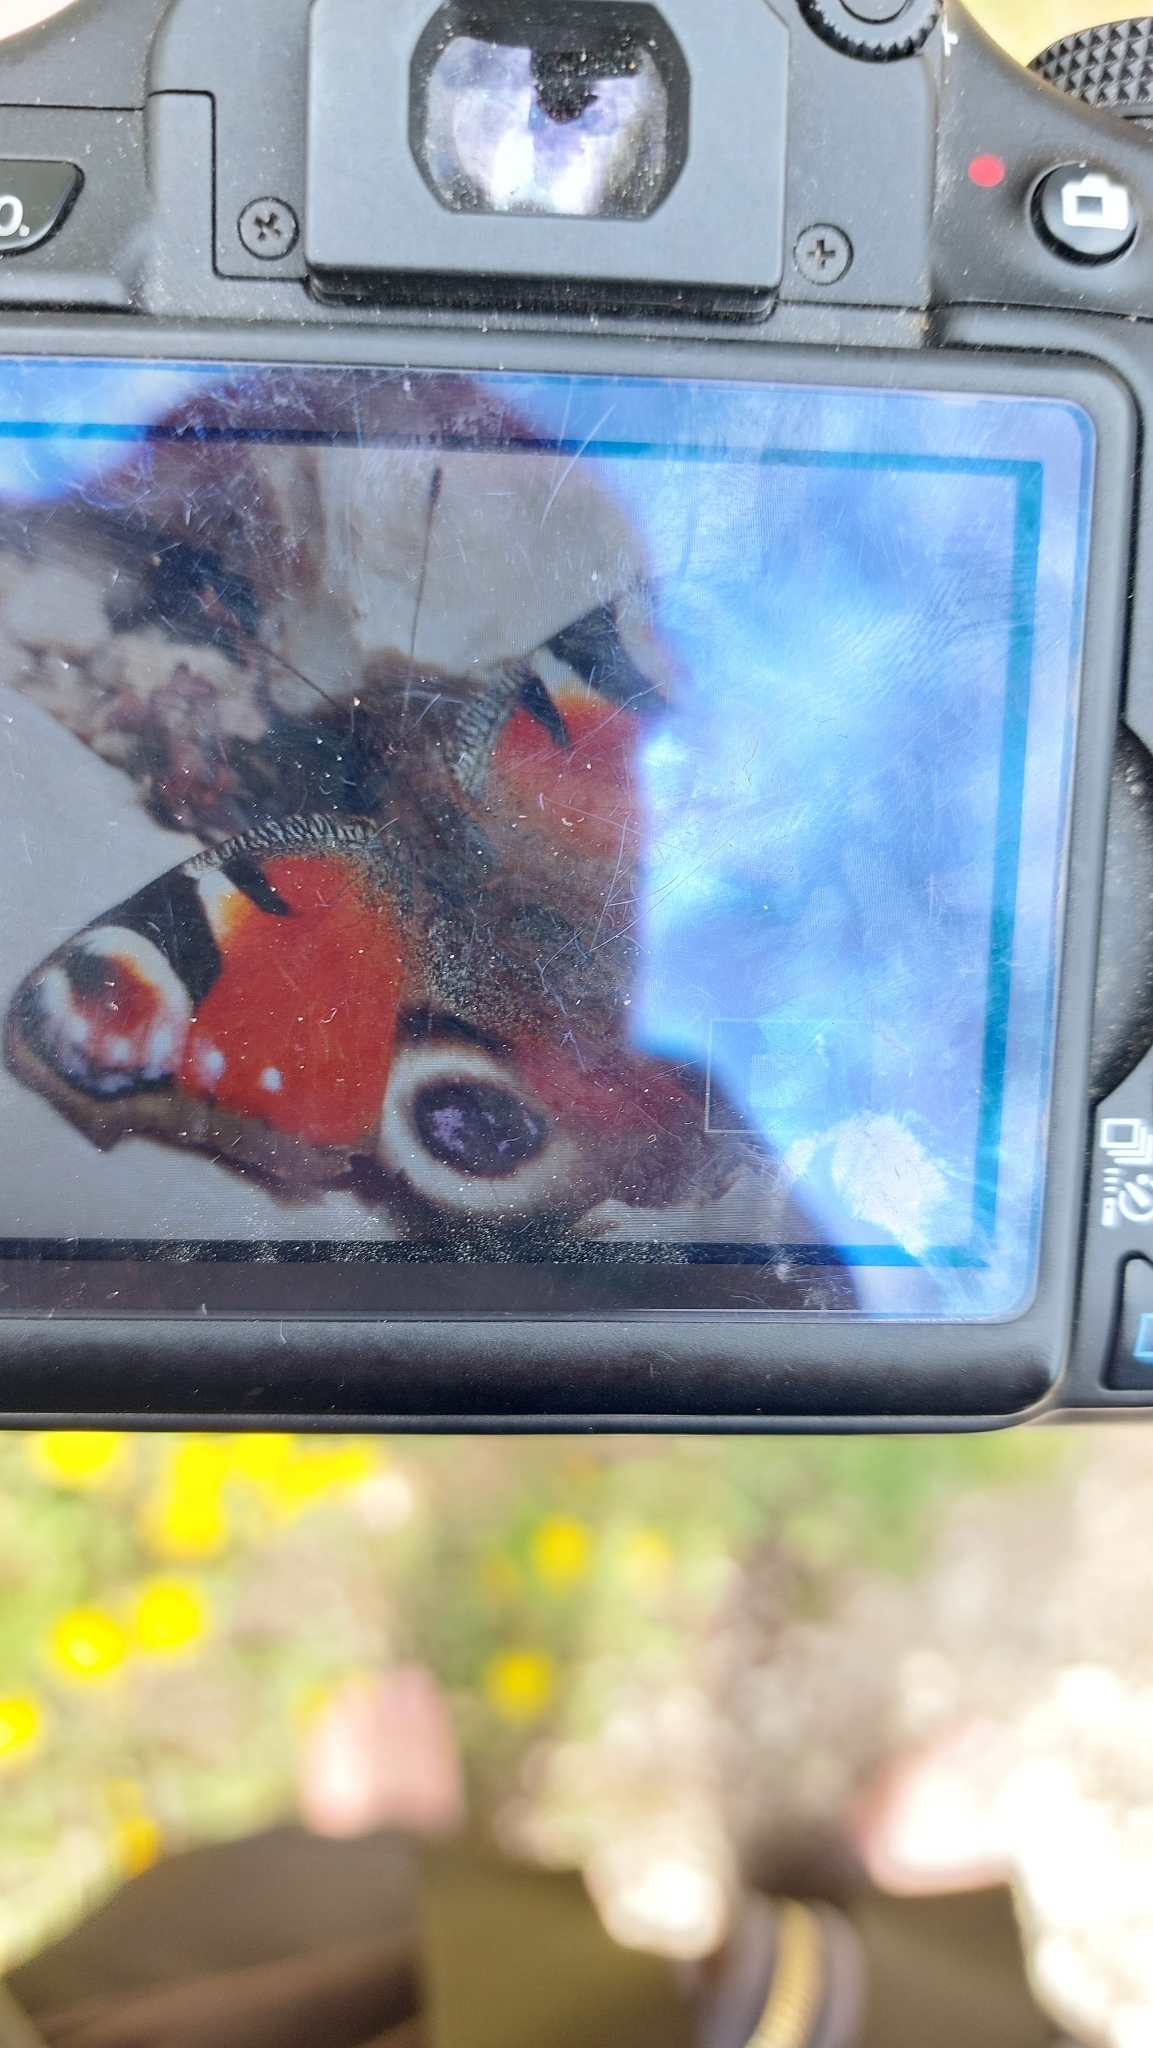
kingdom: Animalia
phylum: Arthropoda
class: Insecta
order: Lepidoptera
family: Nymphalidae
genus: Aglais
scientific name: Aglais io
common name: Peacock
